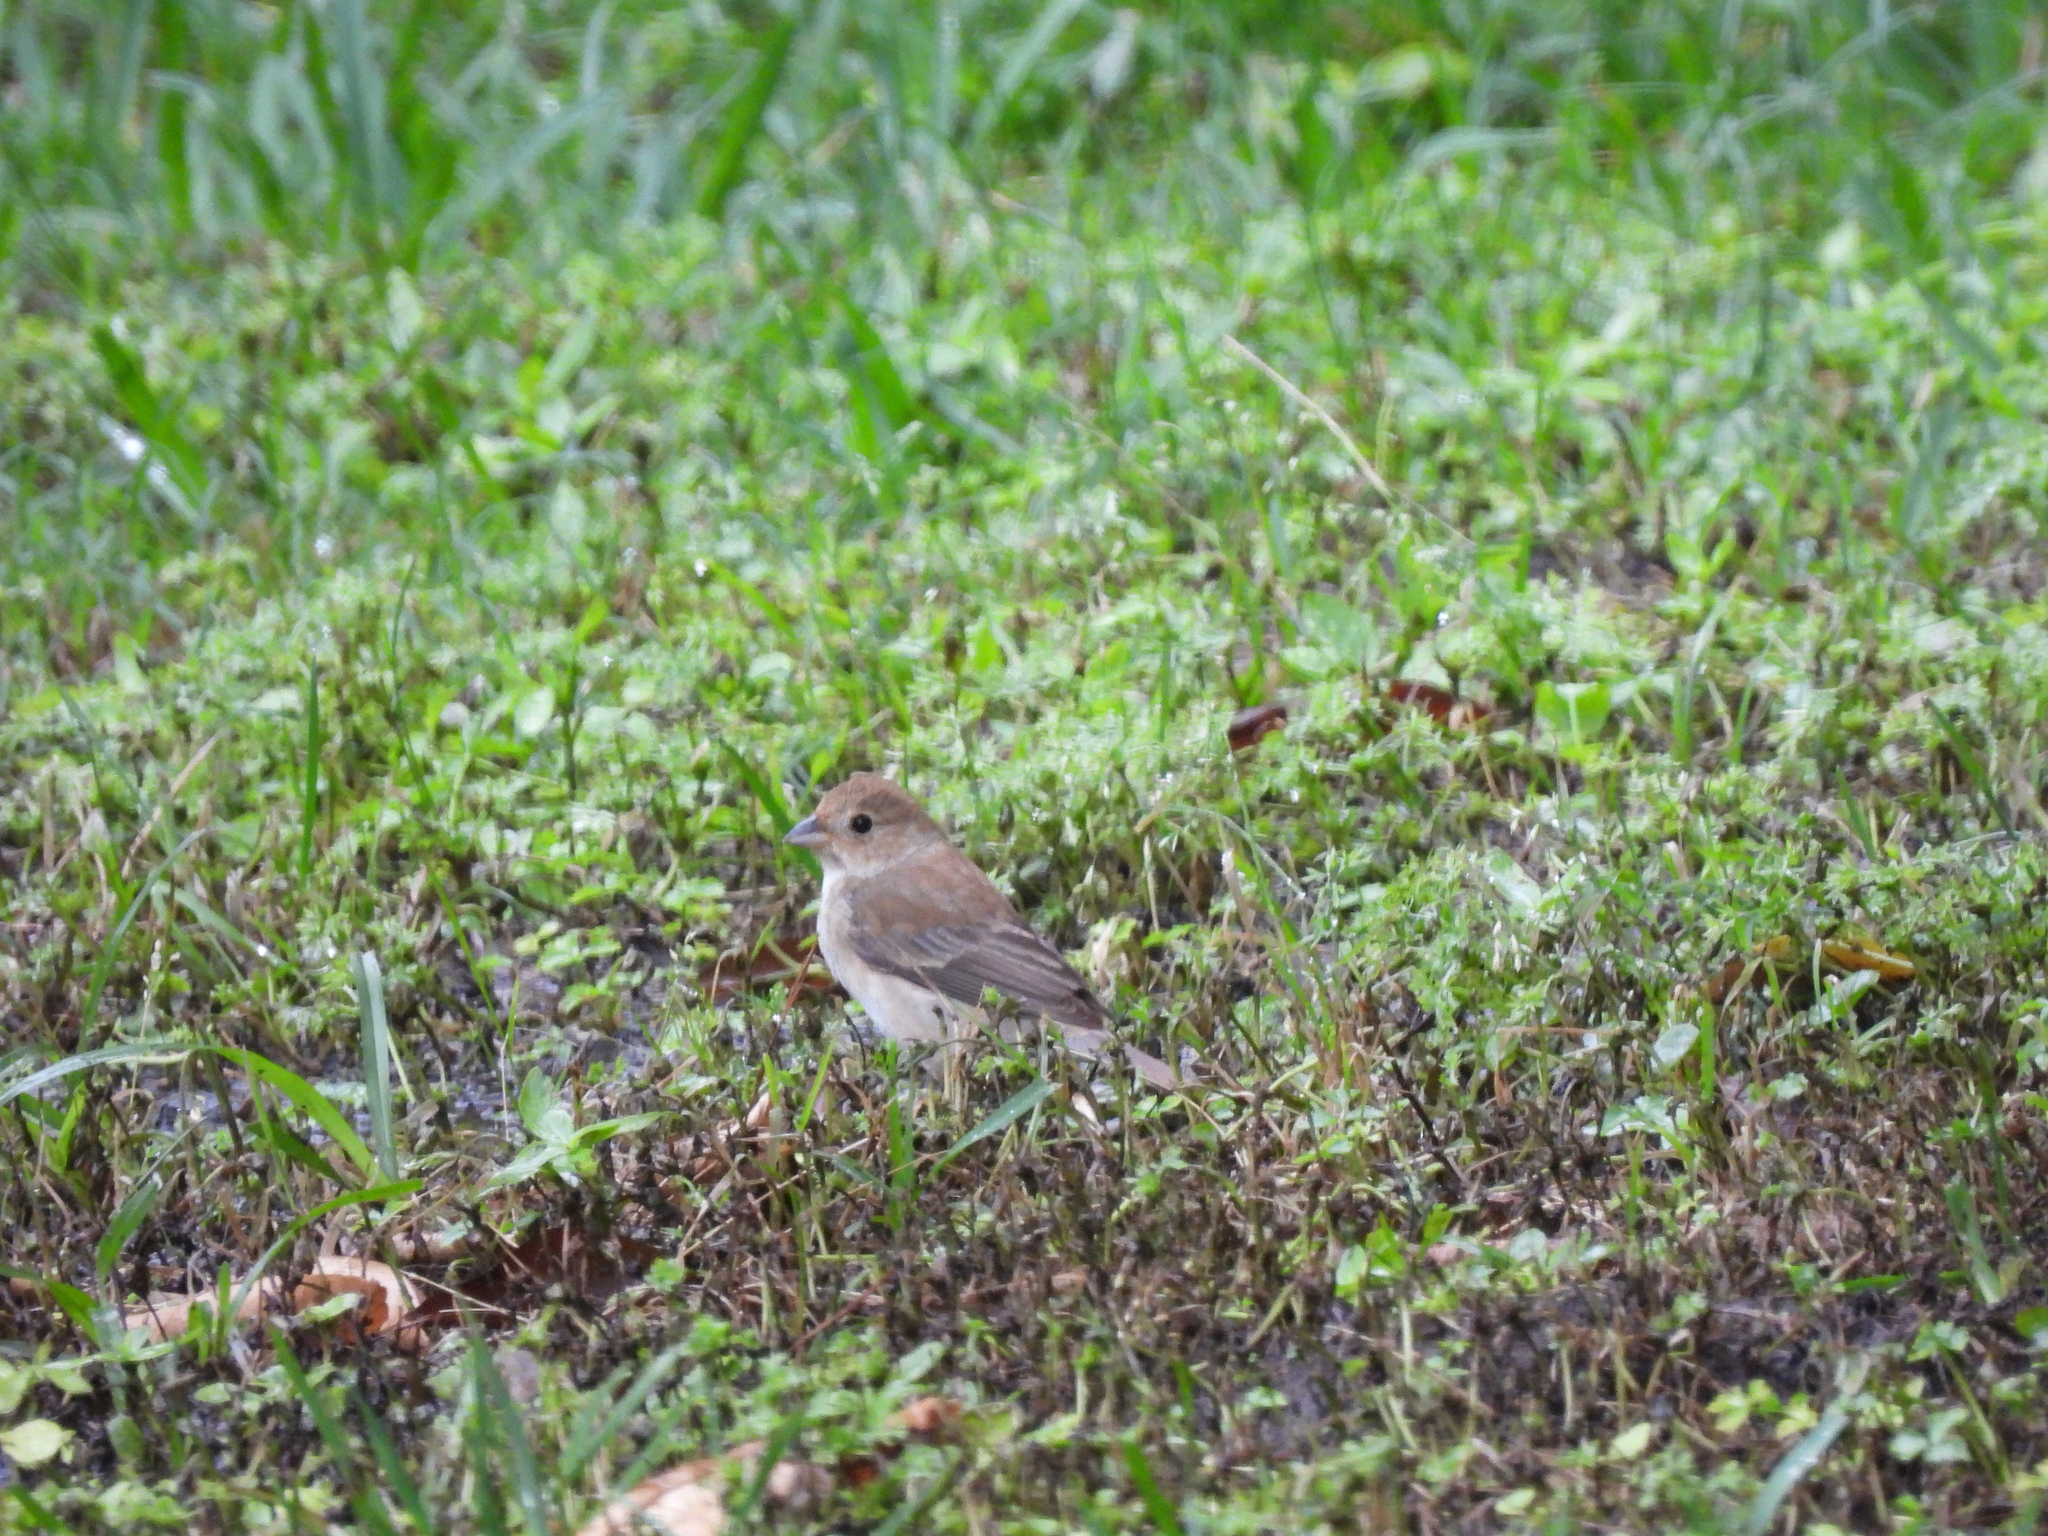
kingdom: Animalia
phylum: Chordata
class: Aves
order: Passeriformes
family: Cardinalidae
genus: Passerina
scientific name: Passerina cyanea
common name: Indigo bunting
